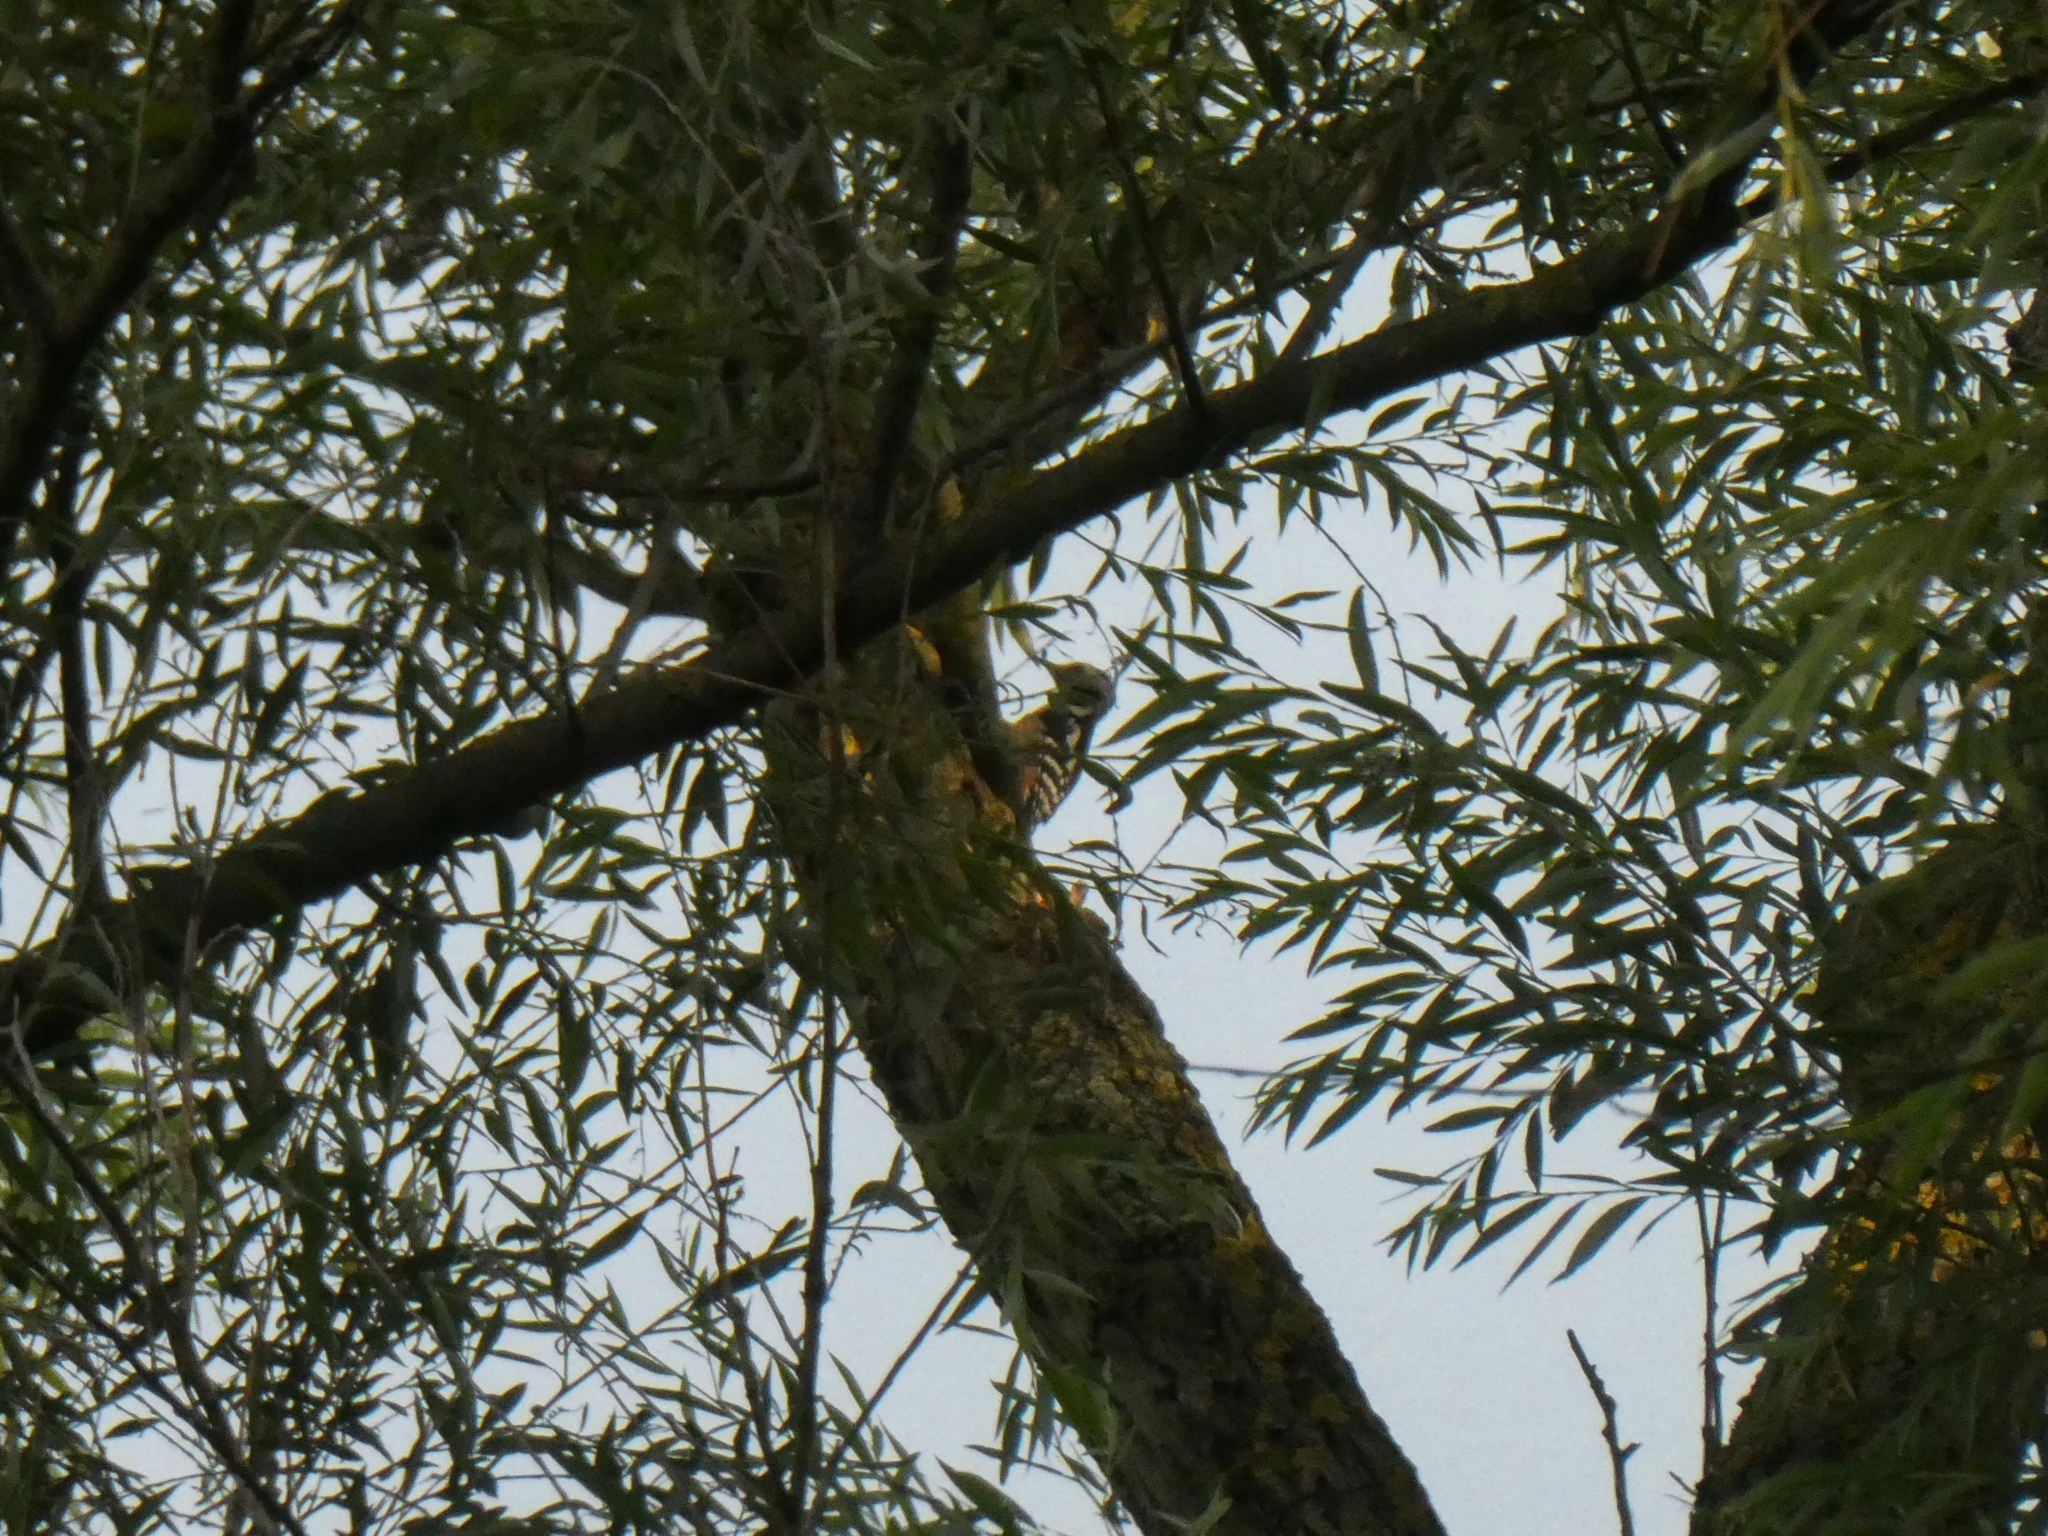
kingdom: Animalia
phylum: Chordata
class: Aves
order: Piciformes
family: Picidae
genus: Dendrocoptes
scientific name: Dendrocoptes medius
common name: Middle spotted woodpecker
